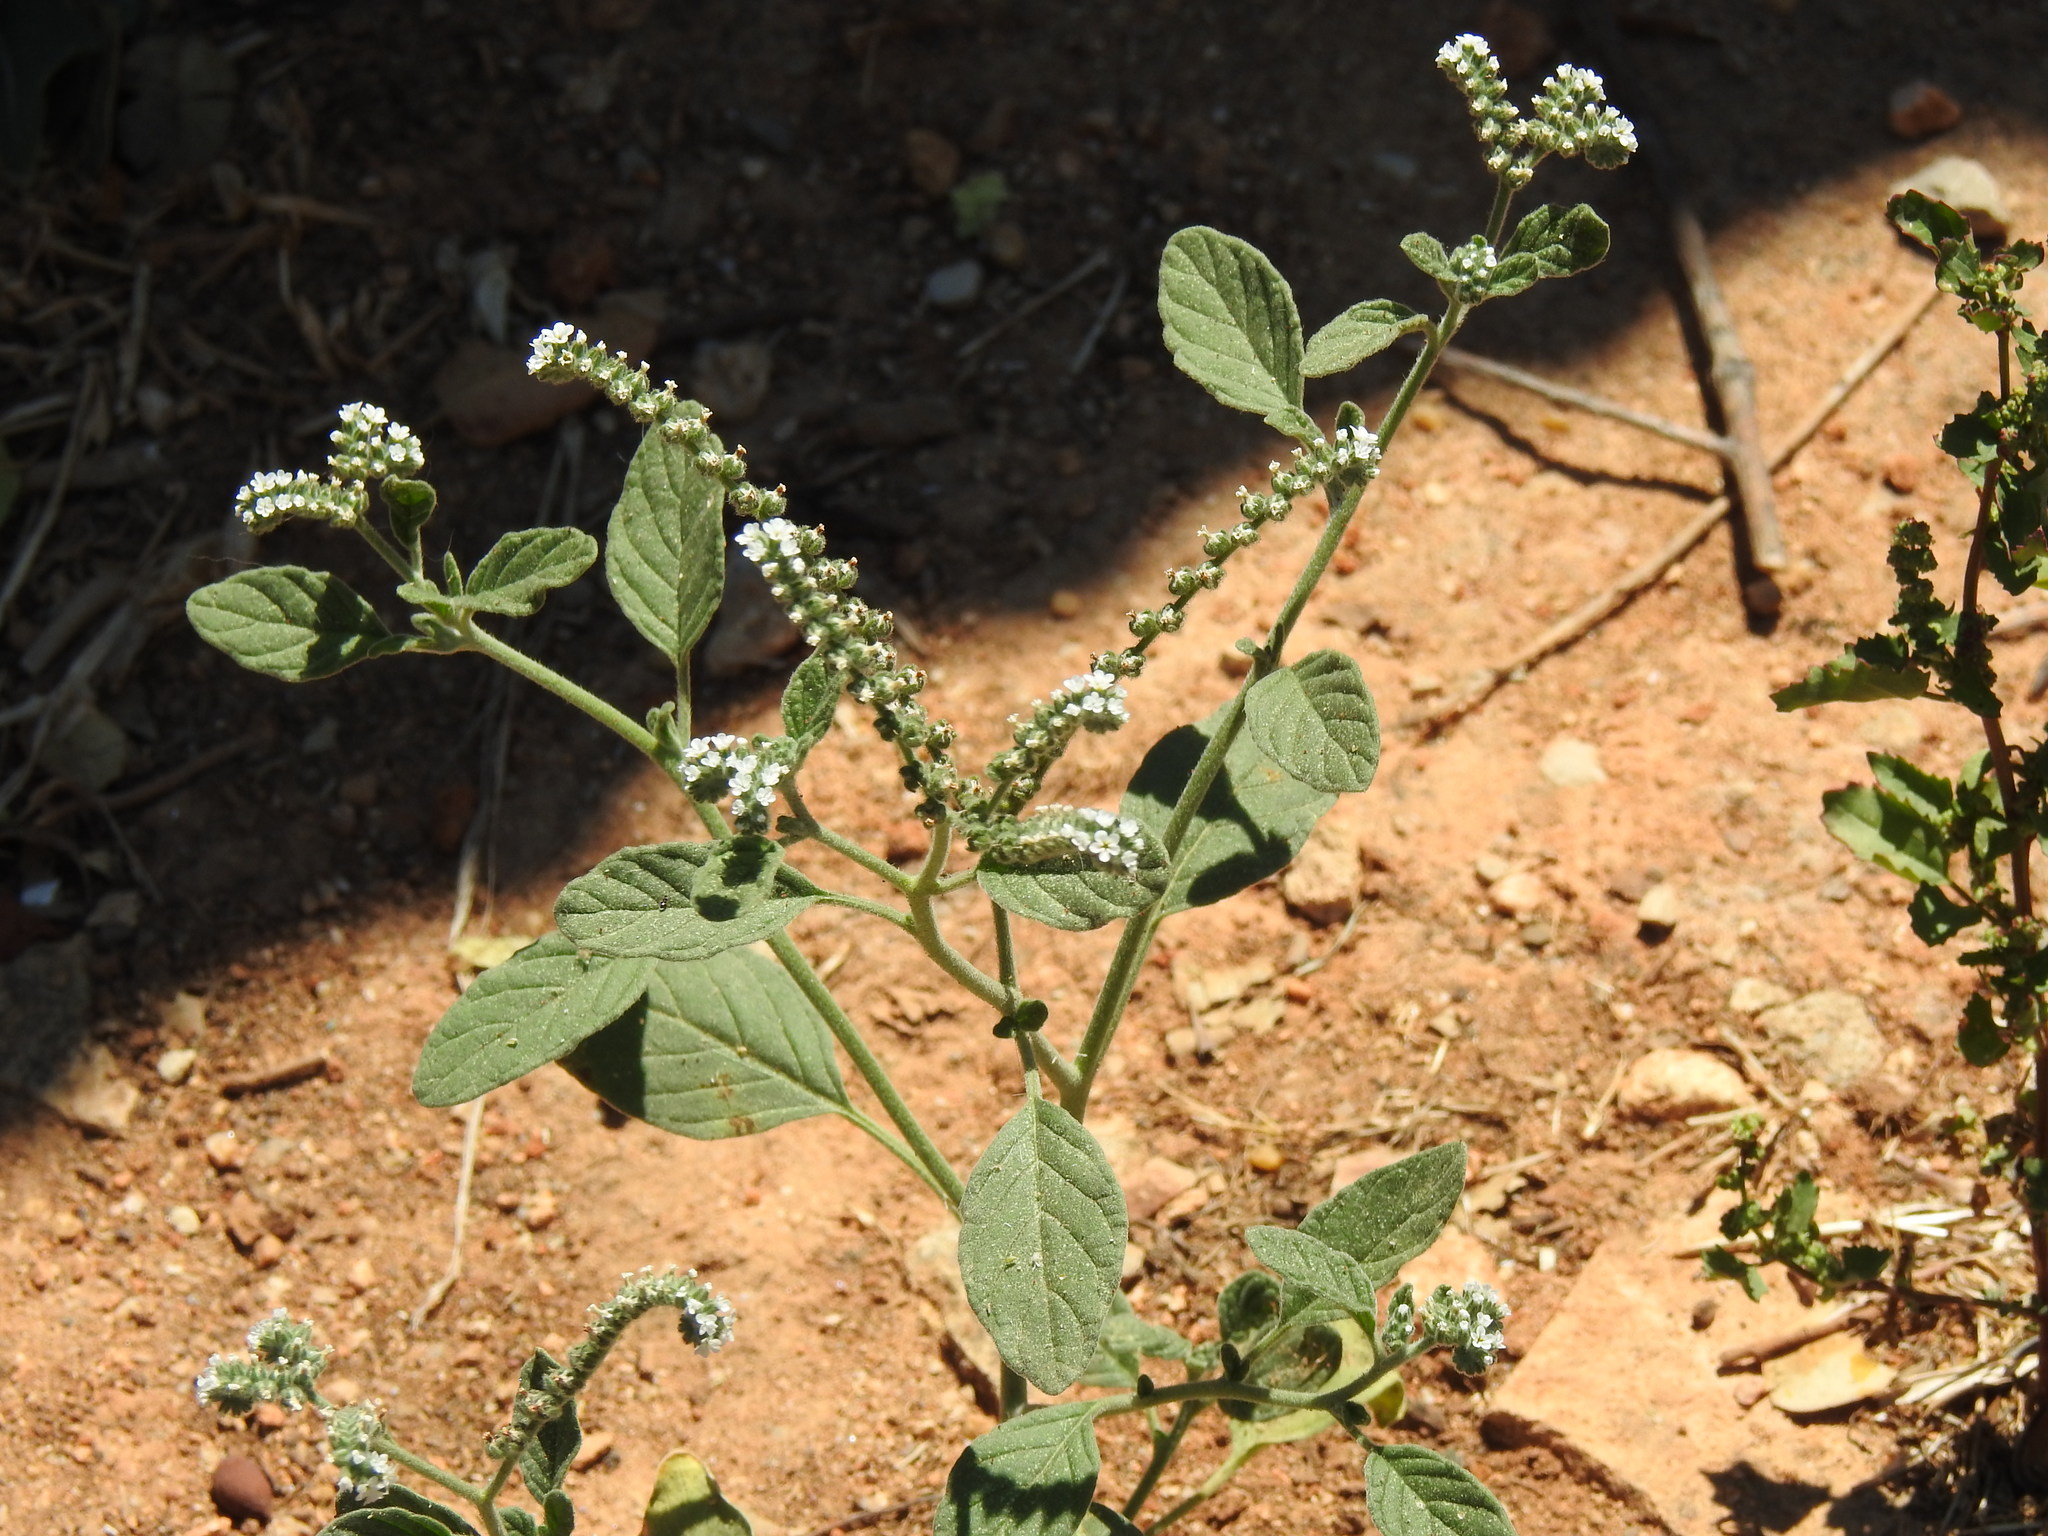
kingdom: Plantae
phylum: Tracheophyta
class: Magnoliopsida
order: Boraginales
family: Heliotropiaceae
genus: Heliotropium
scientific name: Heliotropium europaeum
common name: European heliotrope
